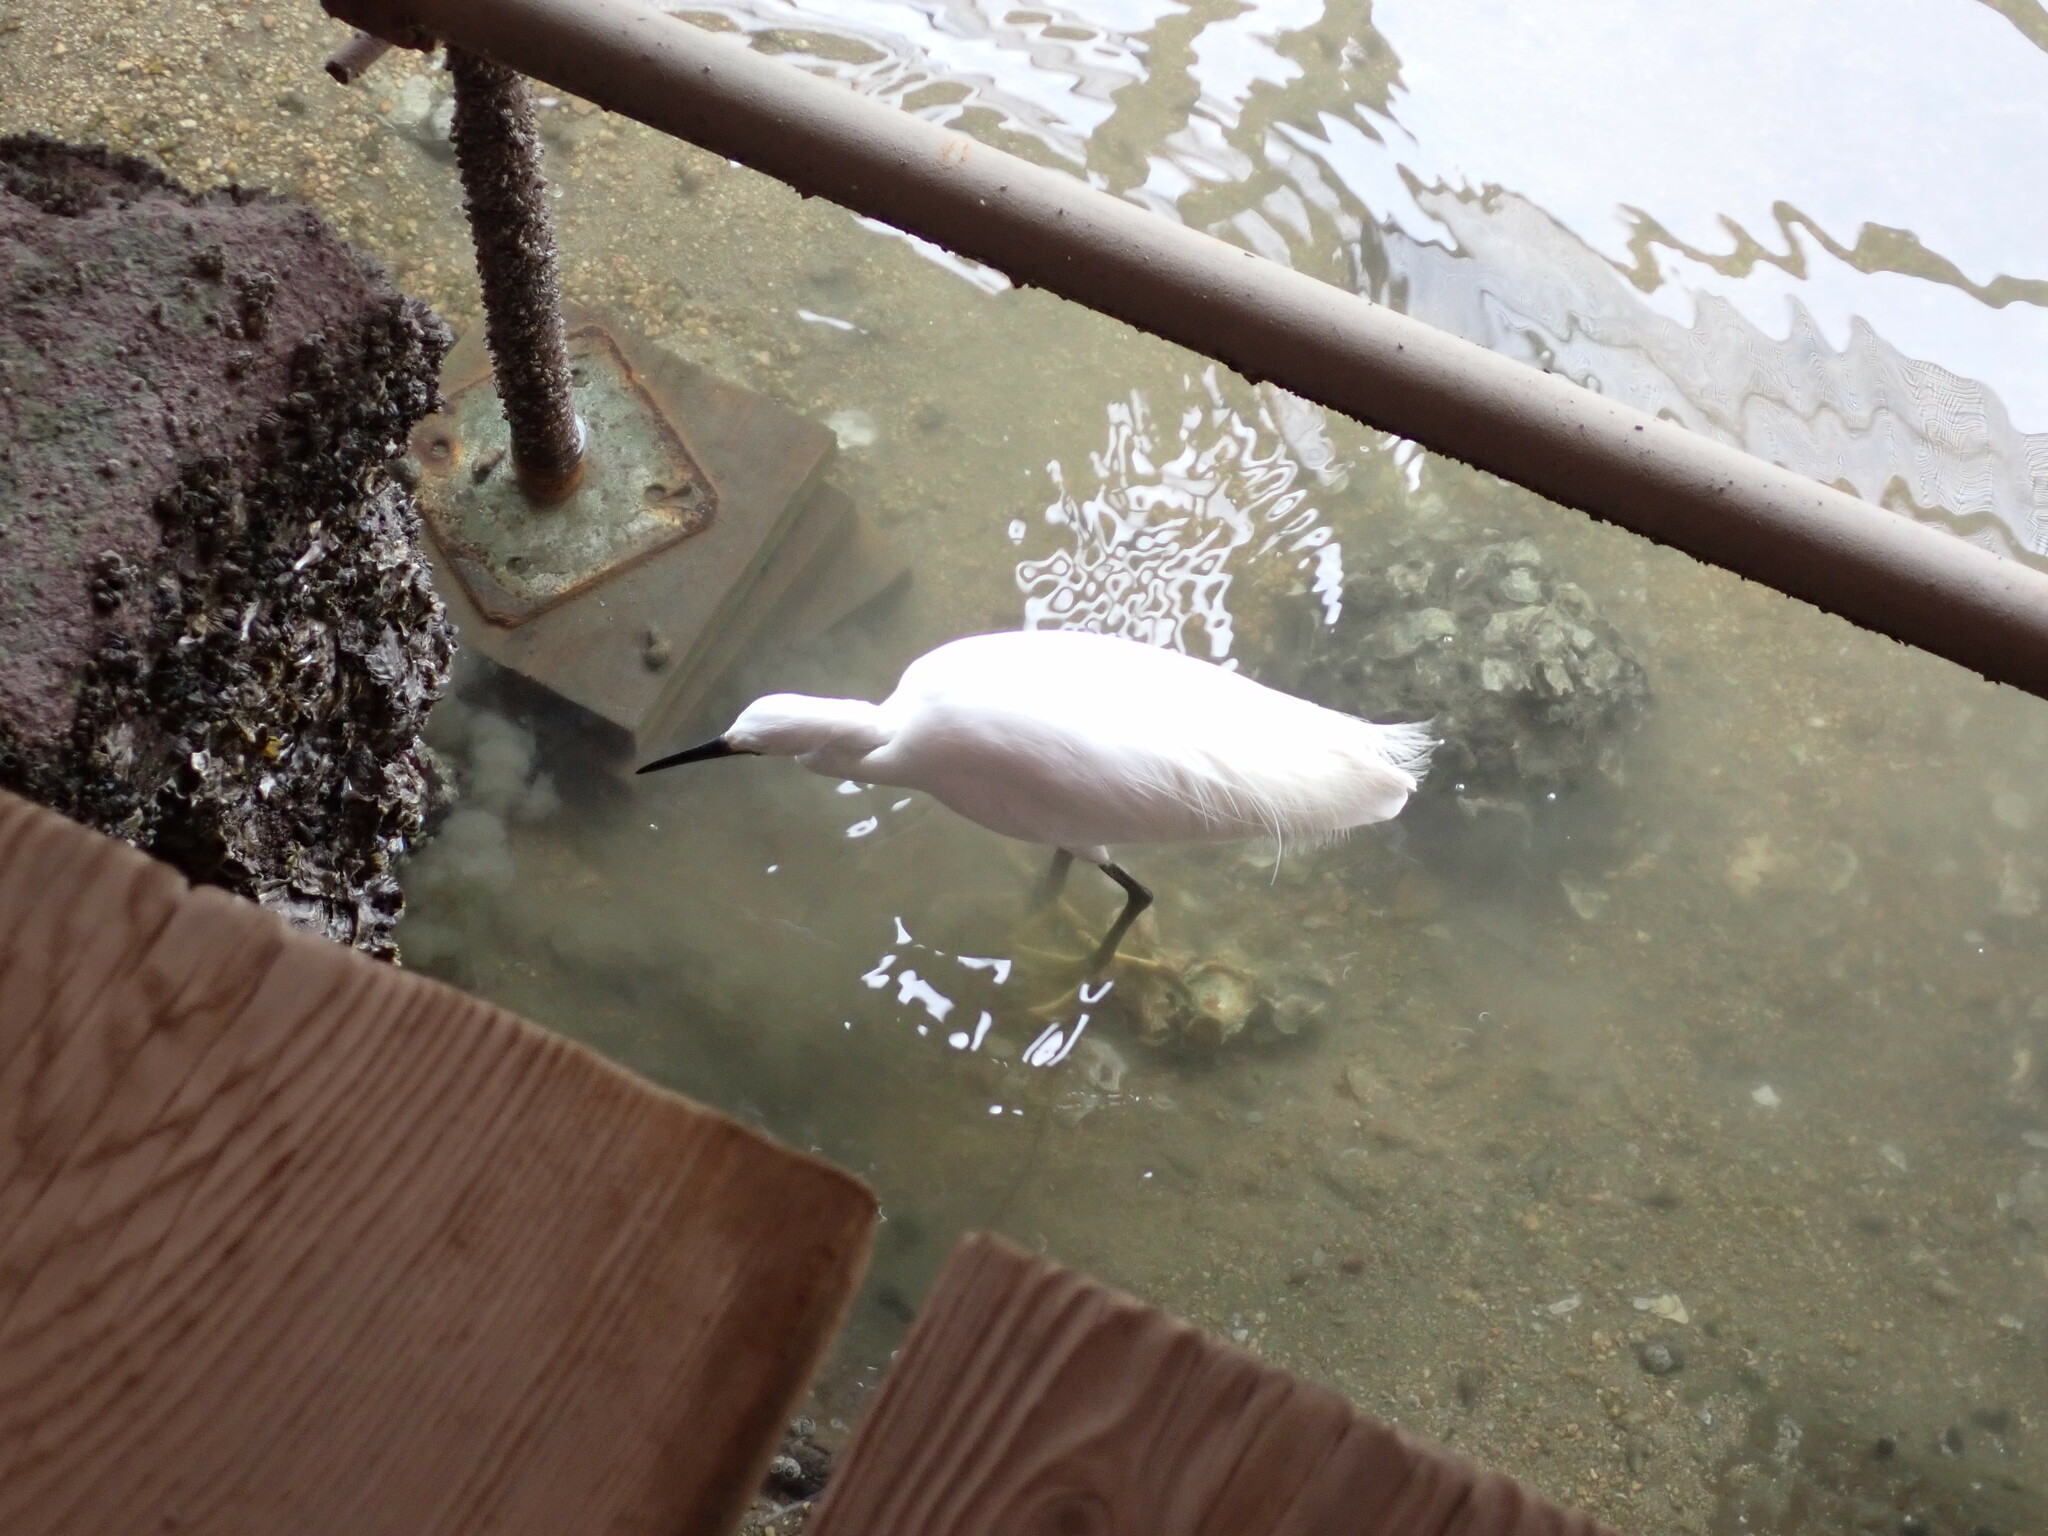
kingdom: Animalia
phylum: Chordata
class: Aves
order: Pelecaniformes
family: Ardeidae
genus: Egretta
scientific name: Egretta garzetta
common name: Little egret
